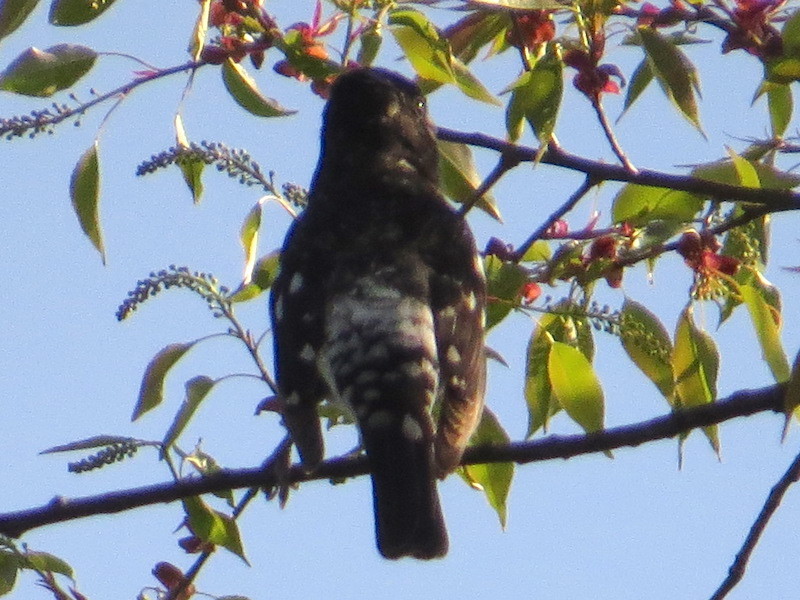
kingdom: Animalia
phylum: Chordata
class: Aves
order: Passeriformes
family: Cardinalidae
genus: Pheucticus
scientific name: Pheucticus ludovicianus
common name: Rose-breasted grosbeak
